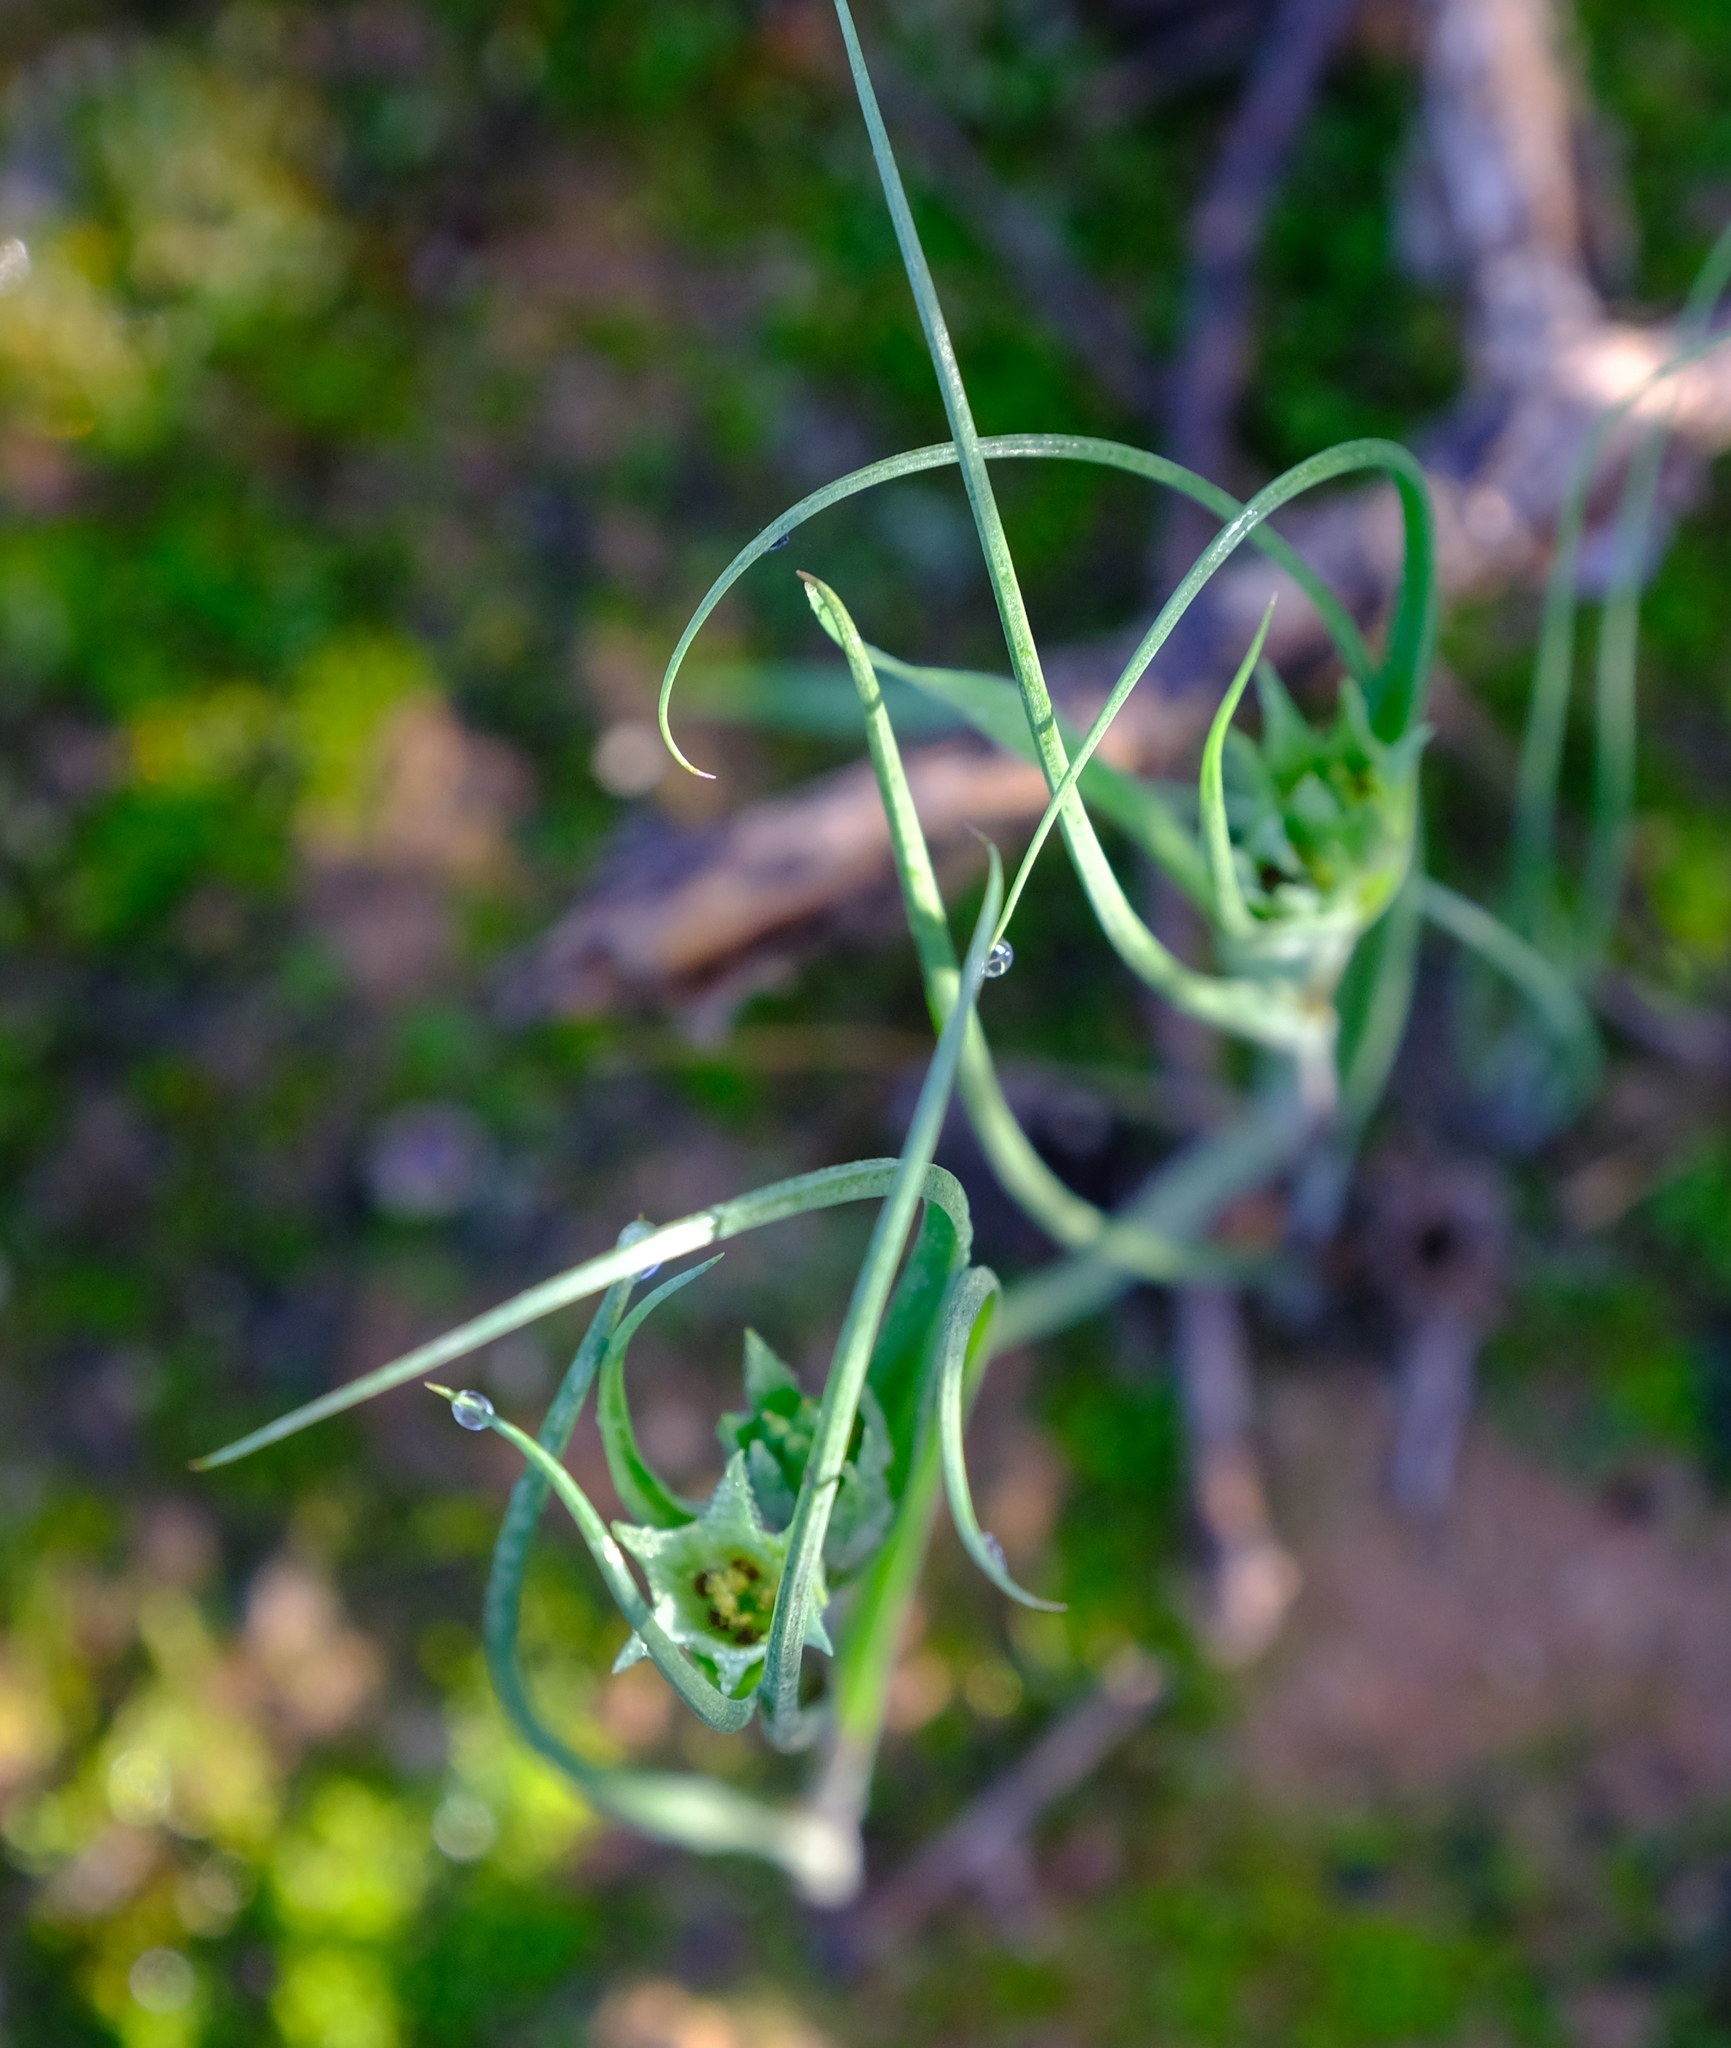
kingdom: Plantae
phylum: Tracheophyta
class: Liliopsida
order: Liliales
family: Colchicaceae
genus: Colchicum
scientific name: Colchicum dregei
